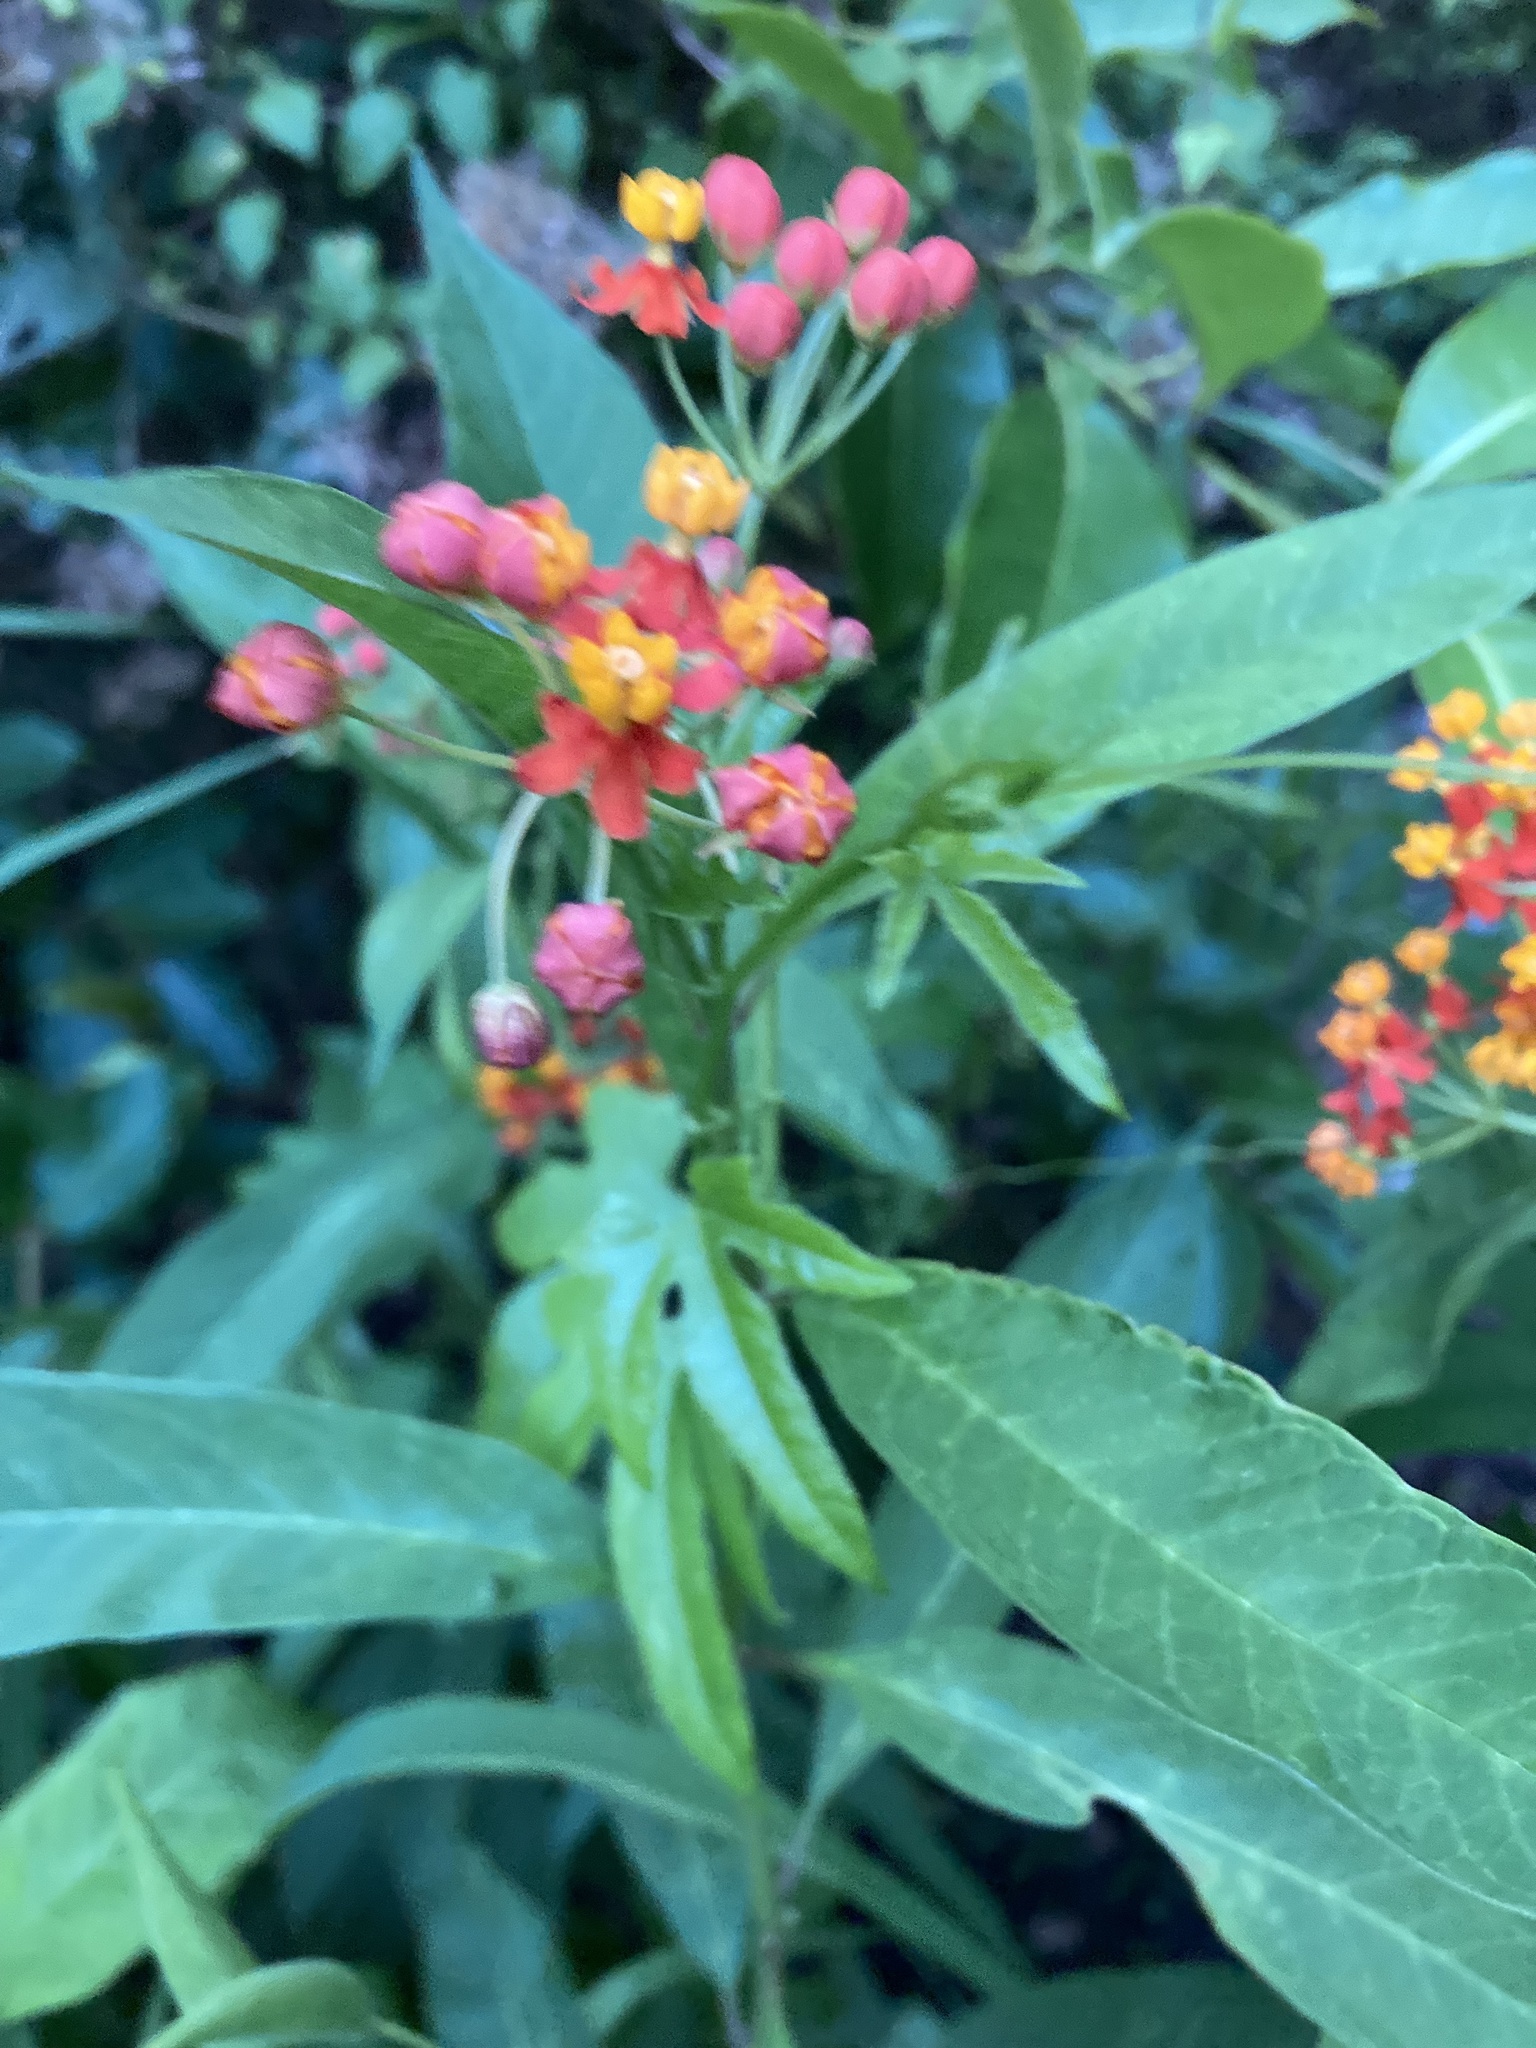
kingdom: Plantae
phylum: Tracheophyta
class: Magnoliopsida
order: Gentianales
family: Apocynaceae
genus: Asclepias
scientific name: Asclepias curassavica
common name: Bloodflower
